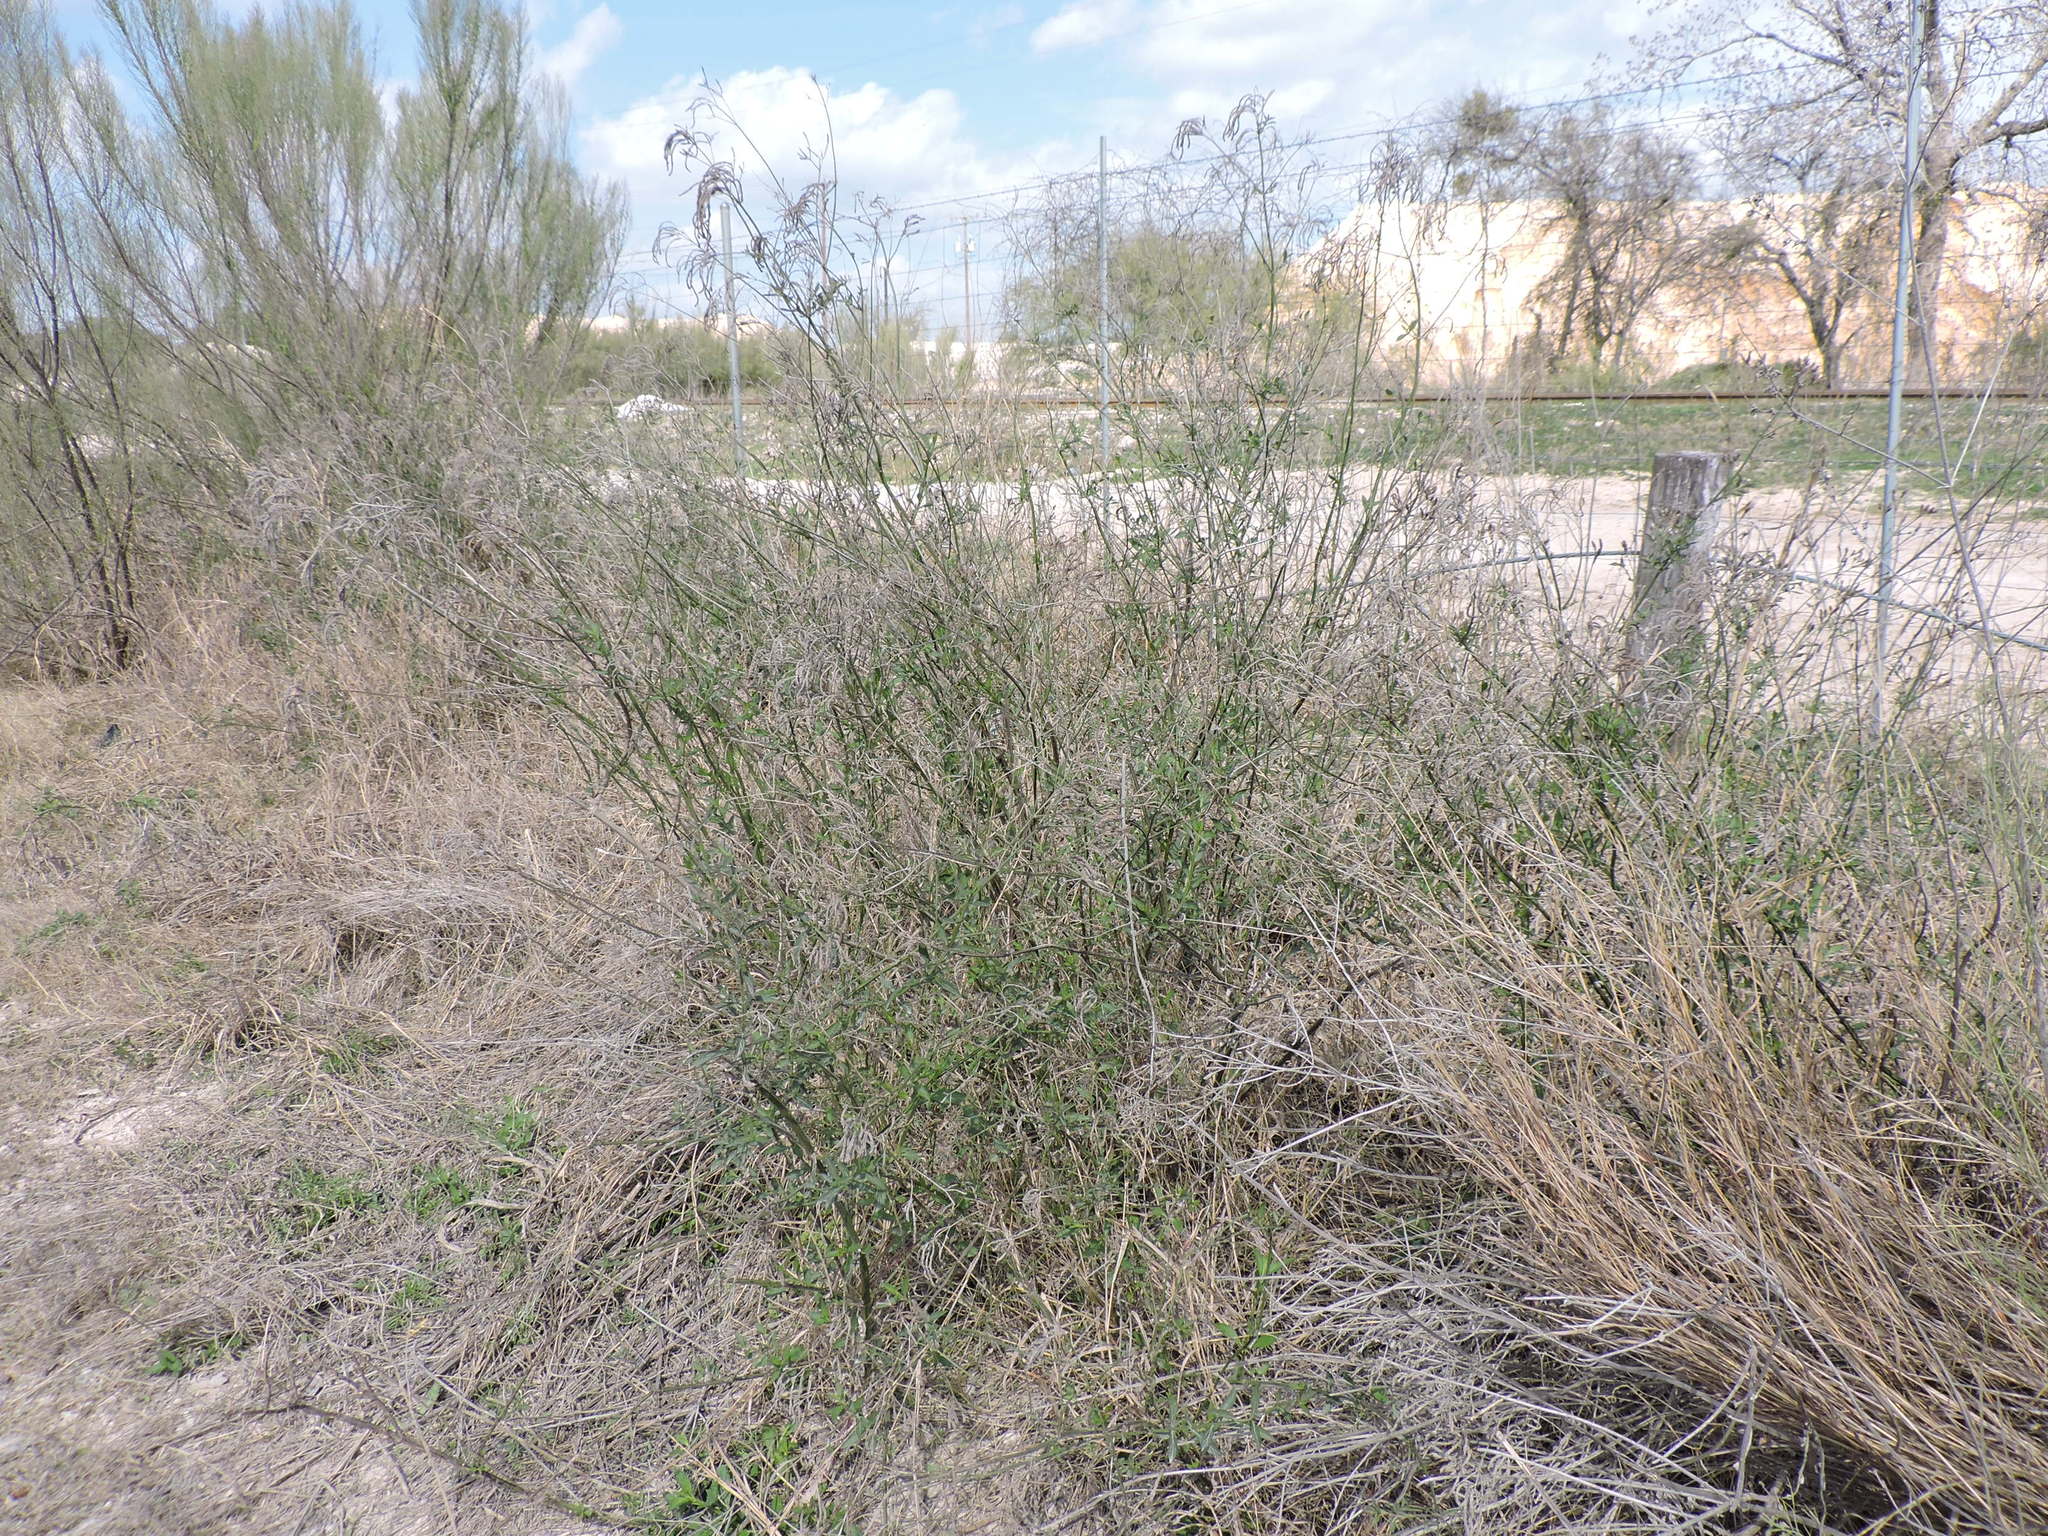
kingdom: Plantae
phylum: Tracheophyta
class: Magnoliopsida
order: Lamiales
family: Verbenaceae
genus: Verbena
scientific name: Verbena brasiliensis
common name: Brazilian vervain
